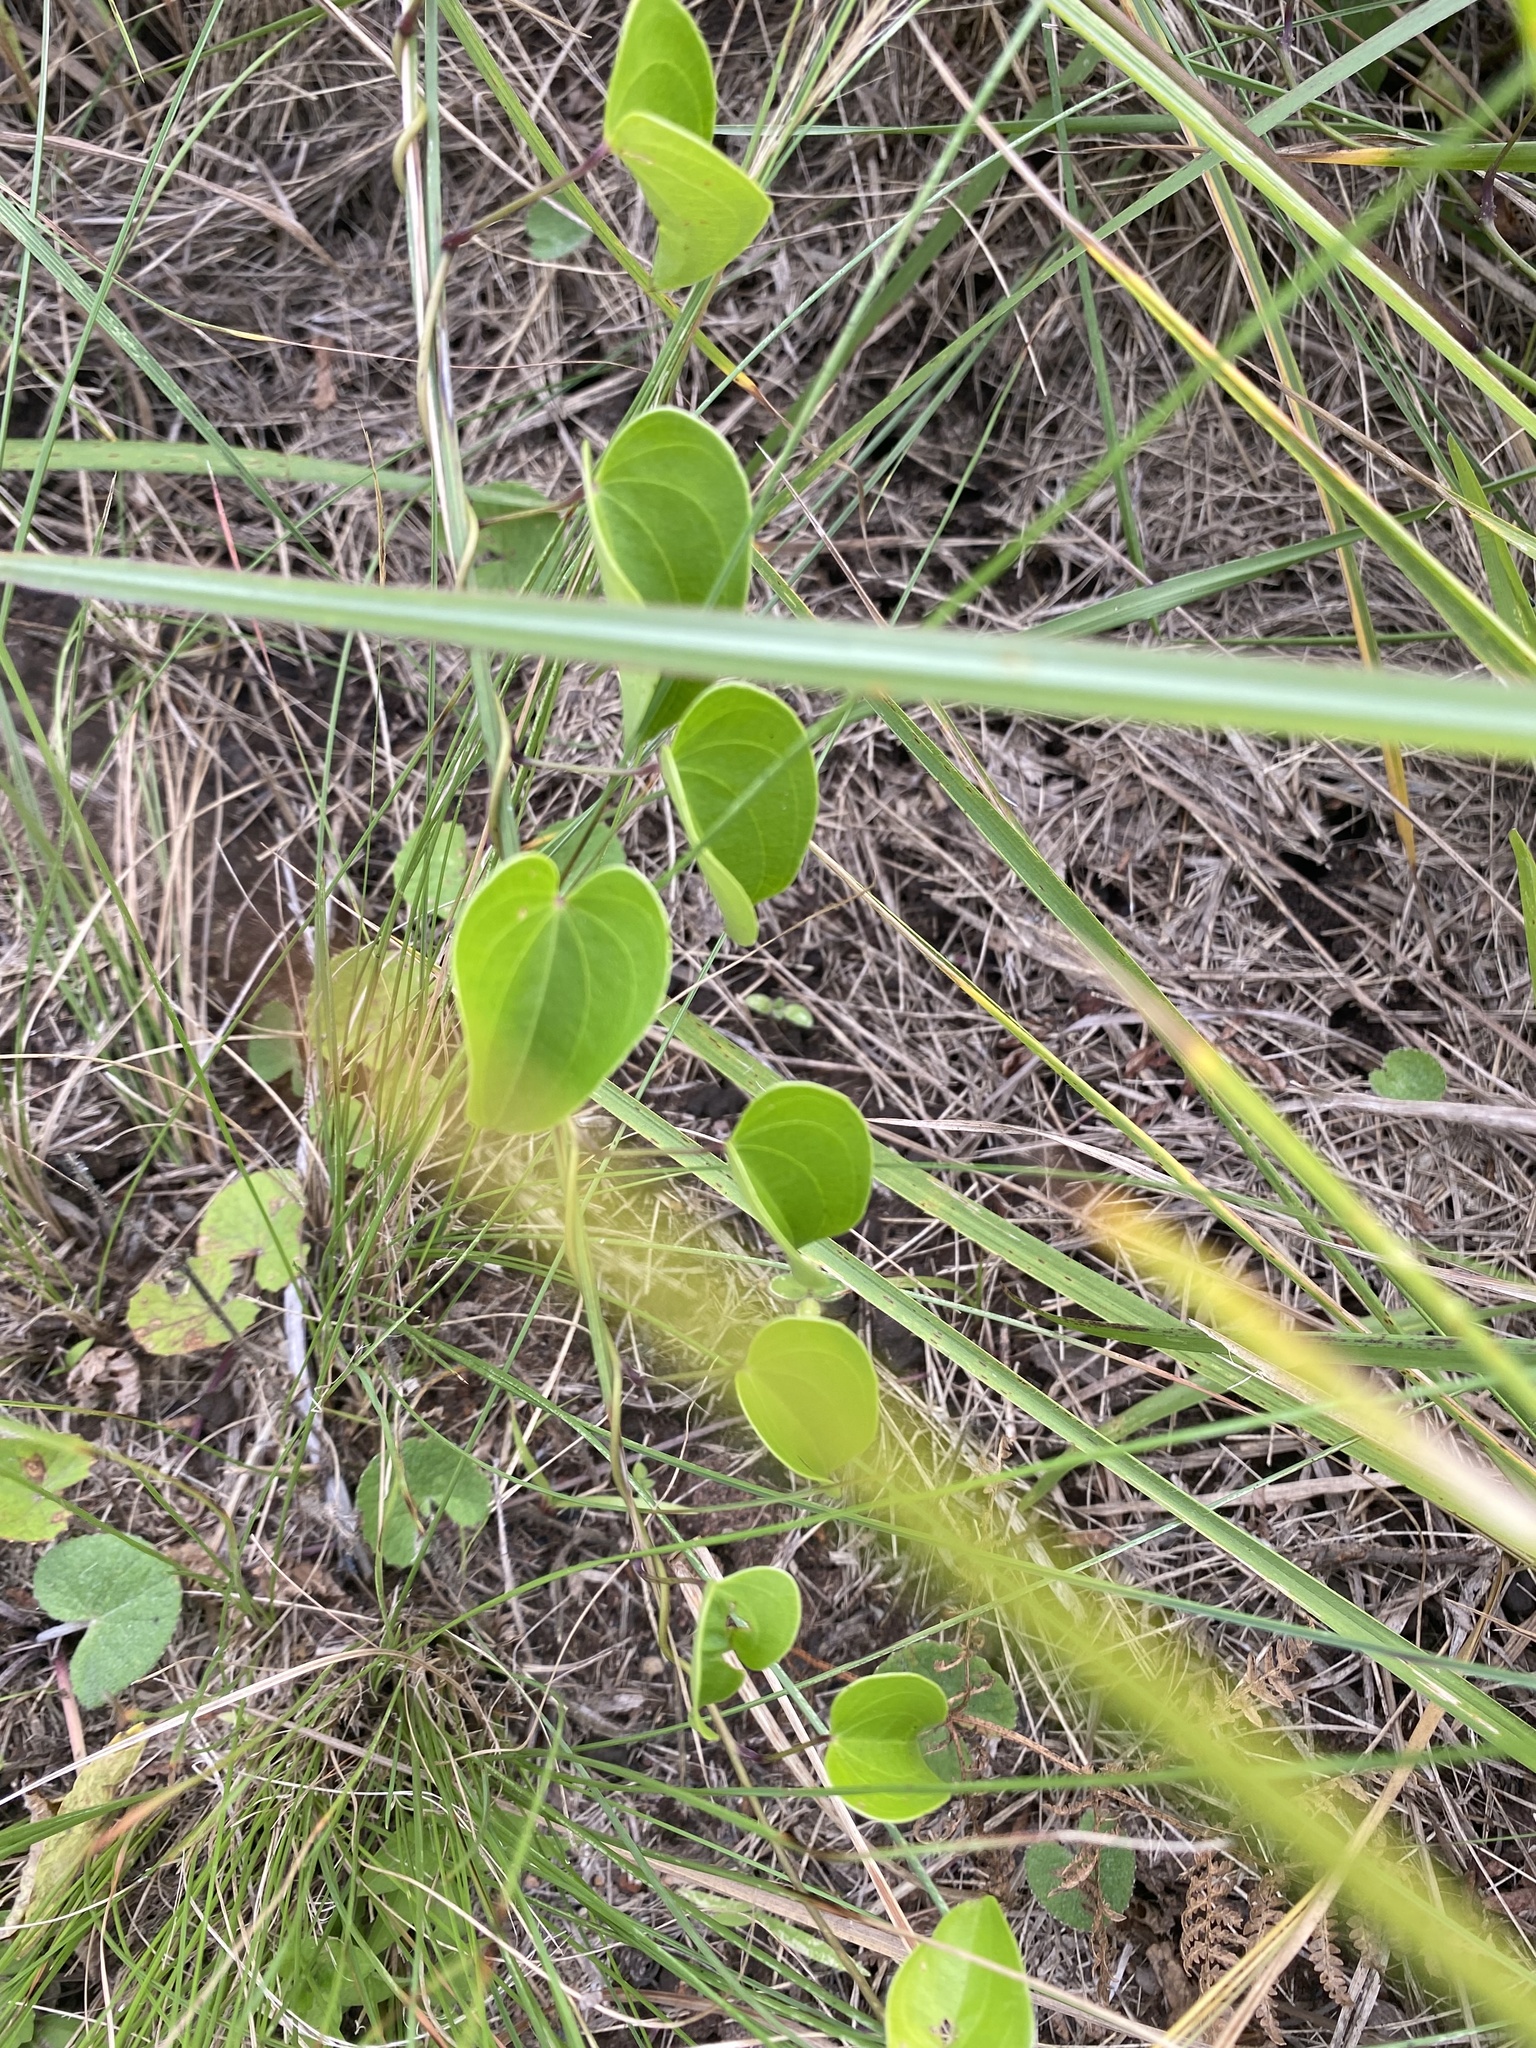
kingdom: Plantae
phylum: Tracheophyta
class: Liliopsida
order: Dioscoreales
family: Dioscoreaceae
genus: Dioscorea
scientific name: Dioscorea cotinifolia
